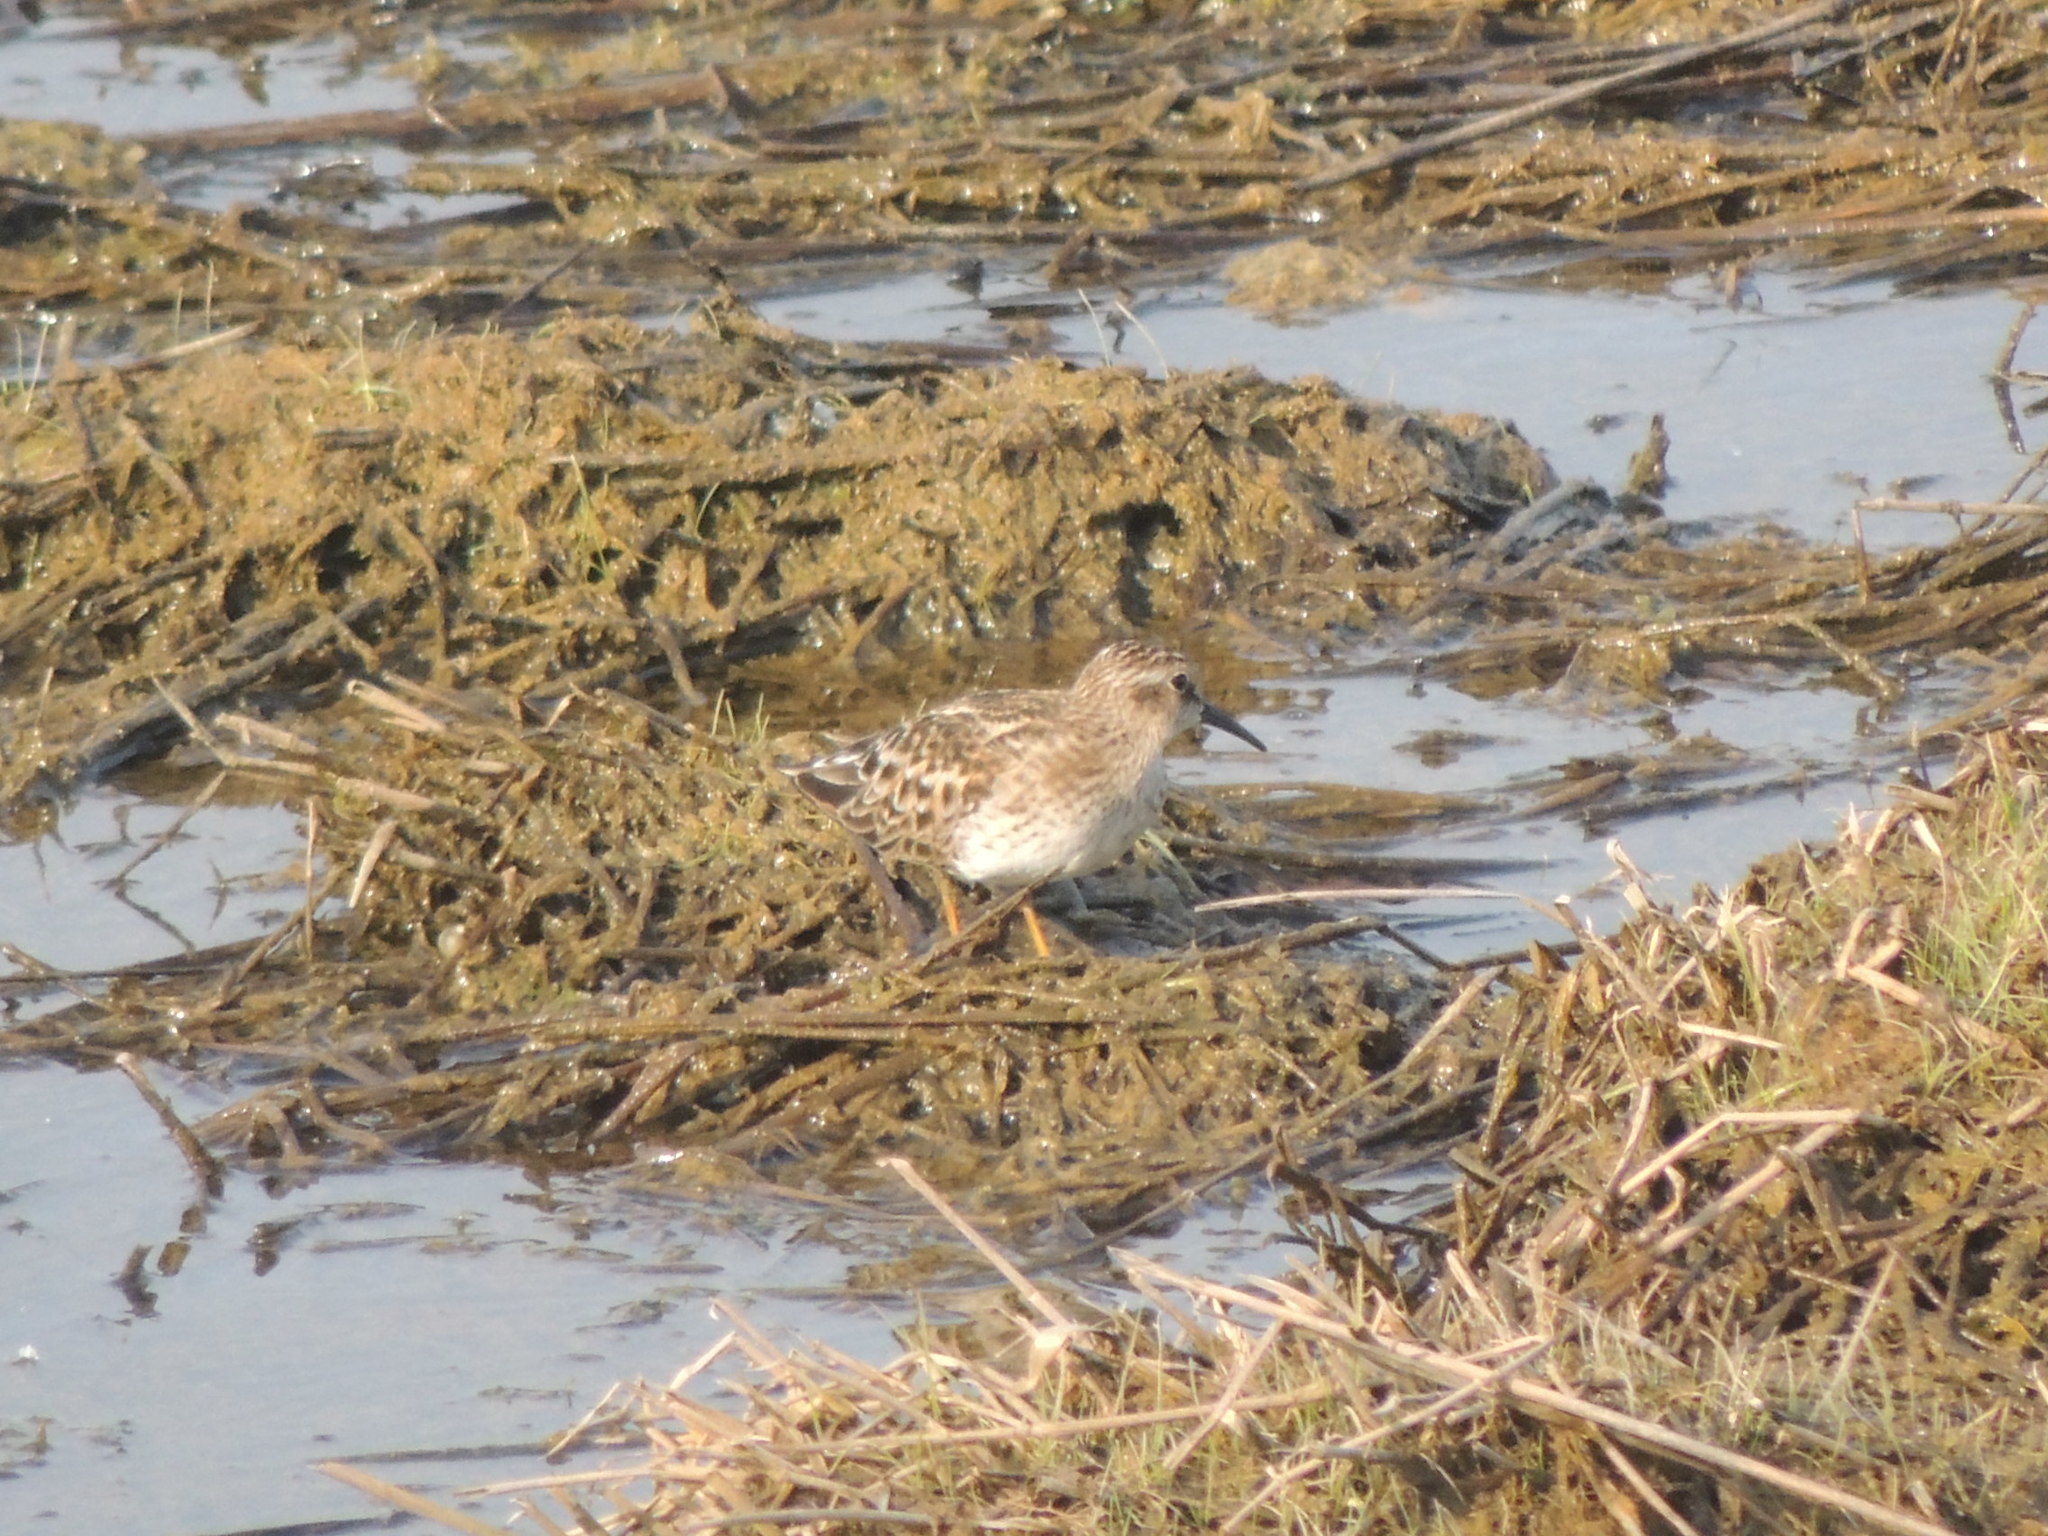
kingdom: Animalia
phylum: Chordata
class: Aves
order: Charadriiformes
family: Scolopacidae
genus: Calidris
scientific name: Calidris minutilla
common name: Least sandpiper
